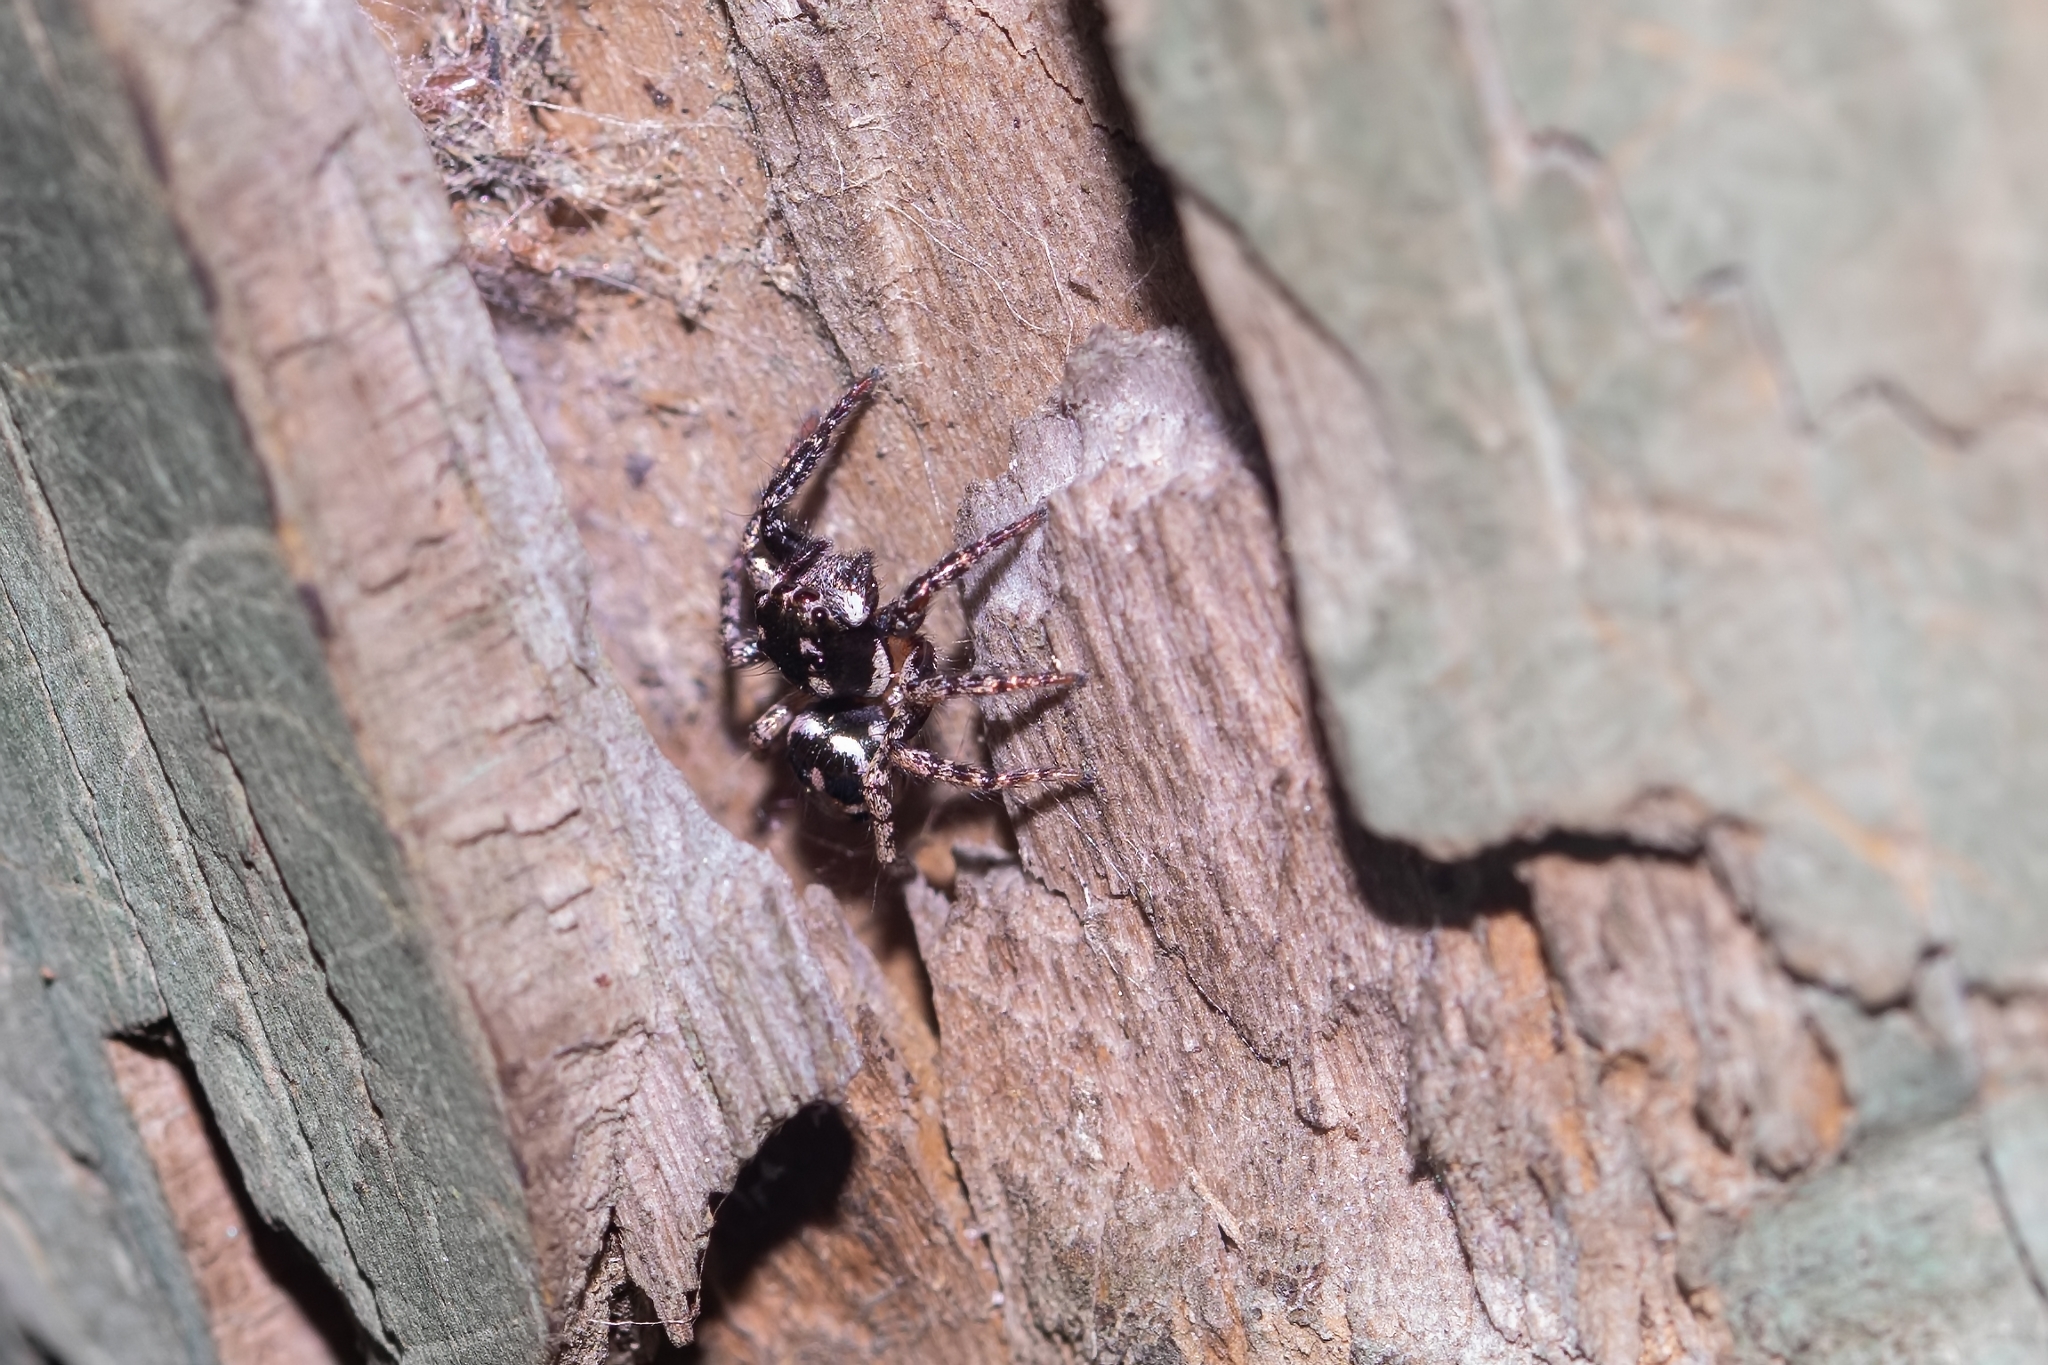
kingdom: Animalia
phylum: Arthropoda
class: Arachnida
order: Araneae
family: Salticidae
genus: Anasaitis
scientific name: Anasaitis canosa
